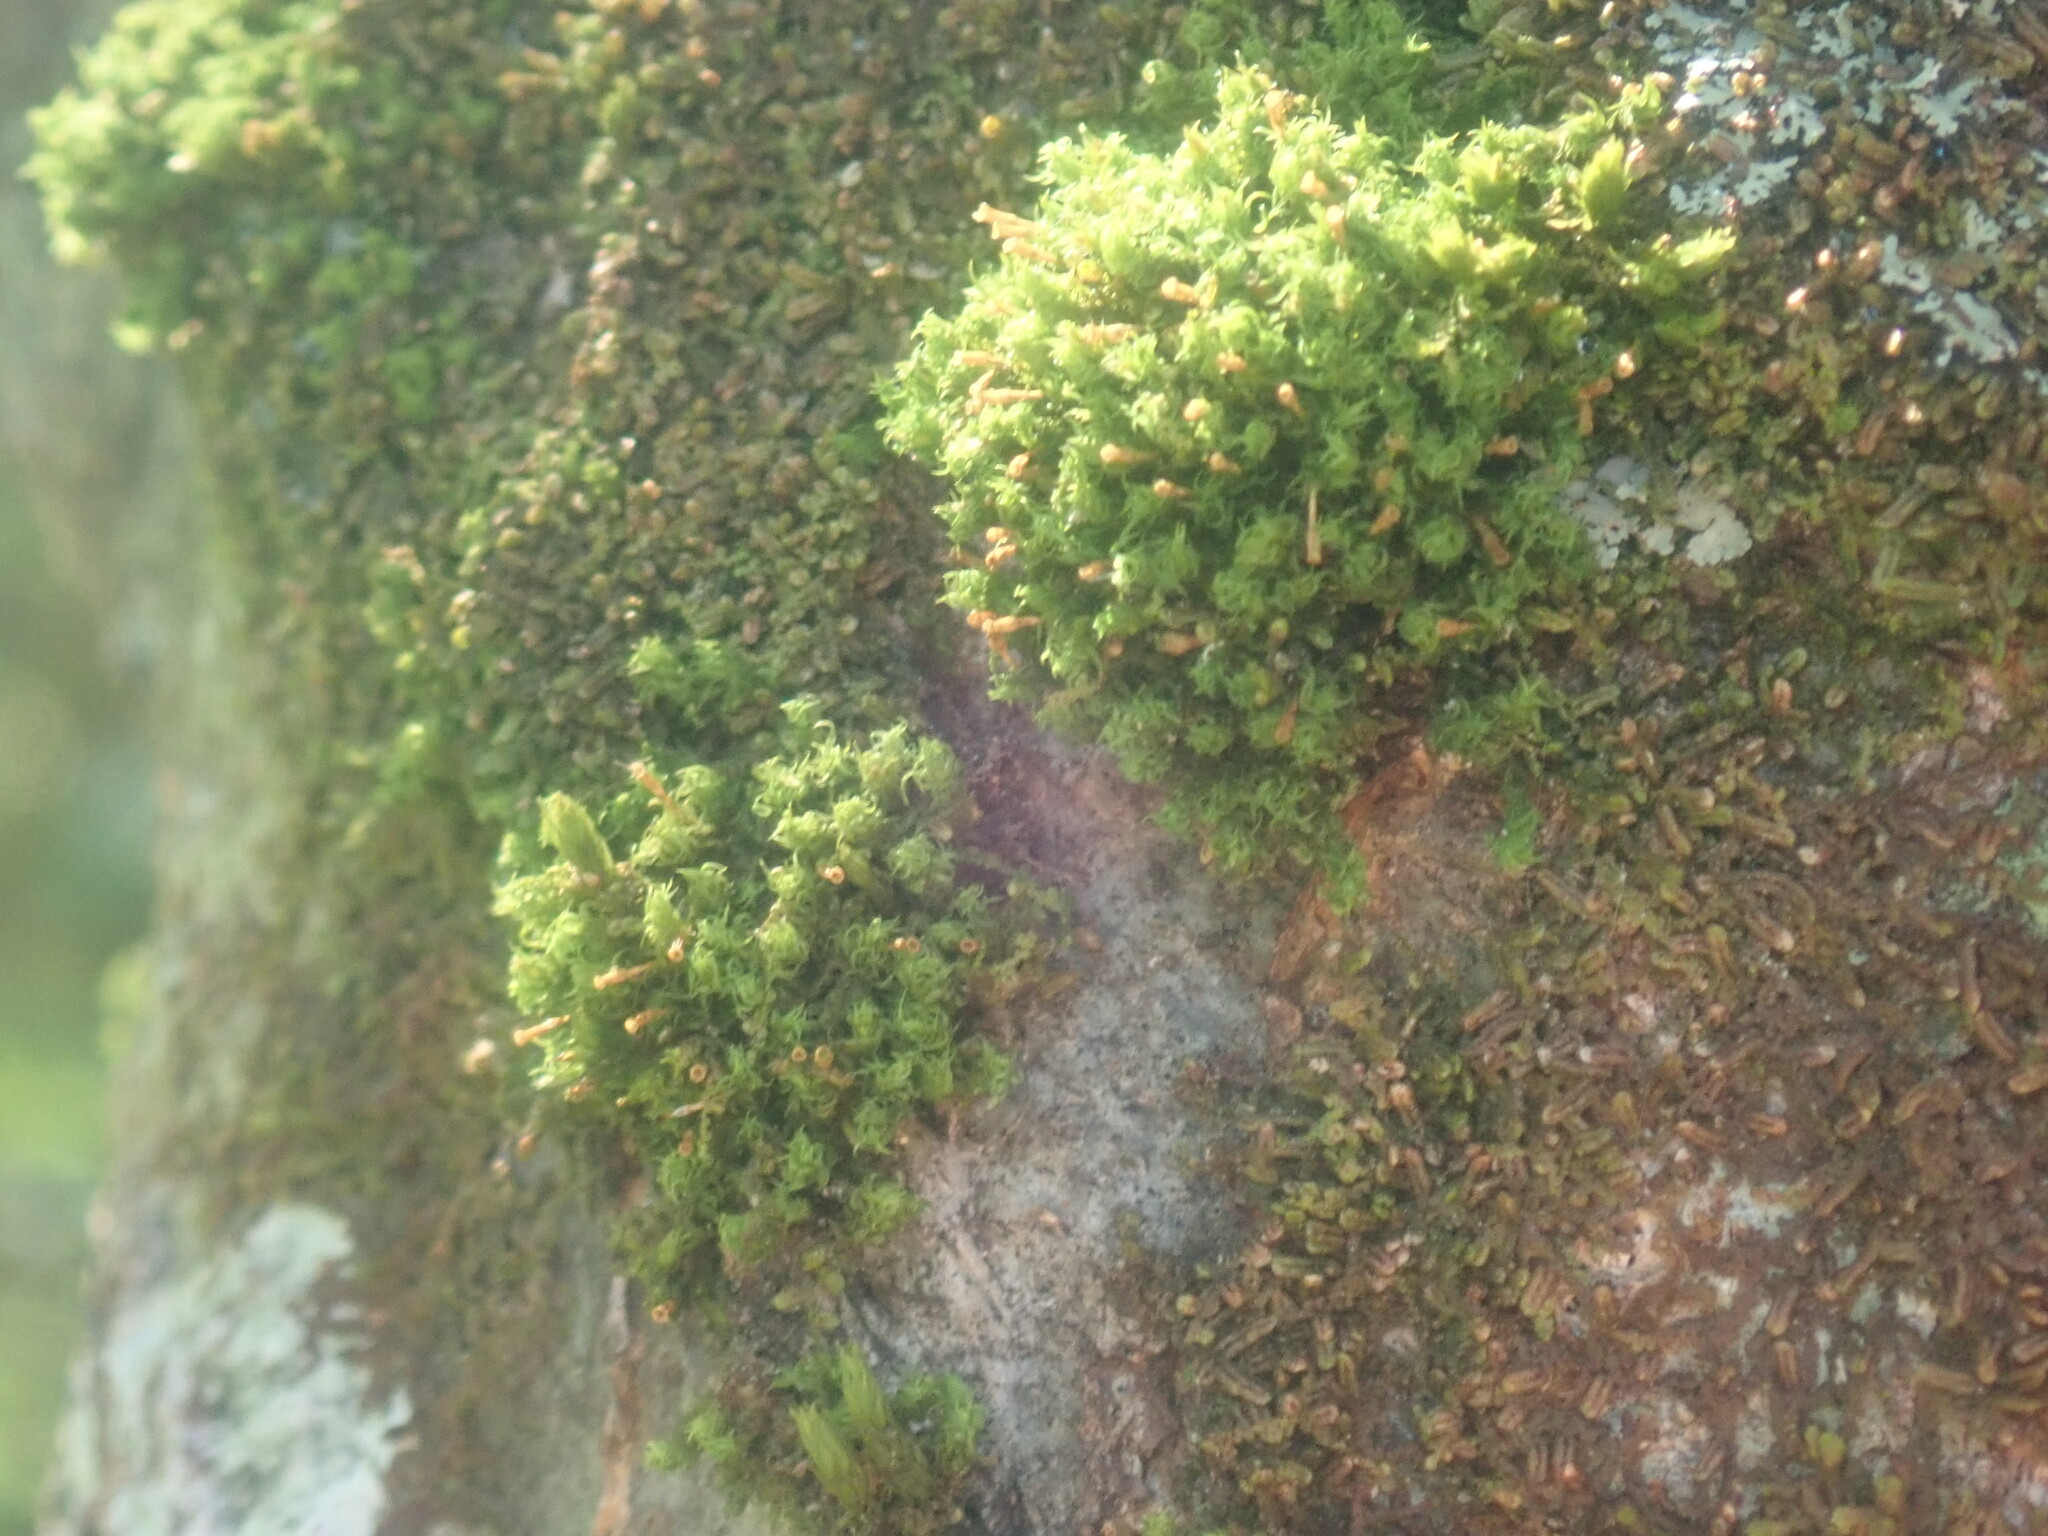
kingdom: Plantae
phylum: Bryophyta
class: Bryopsida
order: Orthotrichales
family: Orthotrichaceae
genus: Ulota
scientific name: Ulota crispa
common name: Crisped pincushion moss
